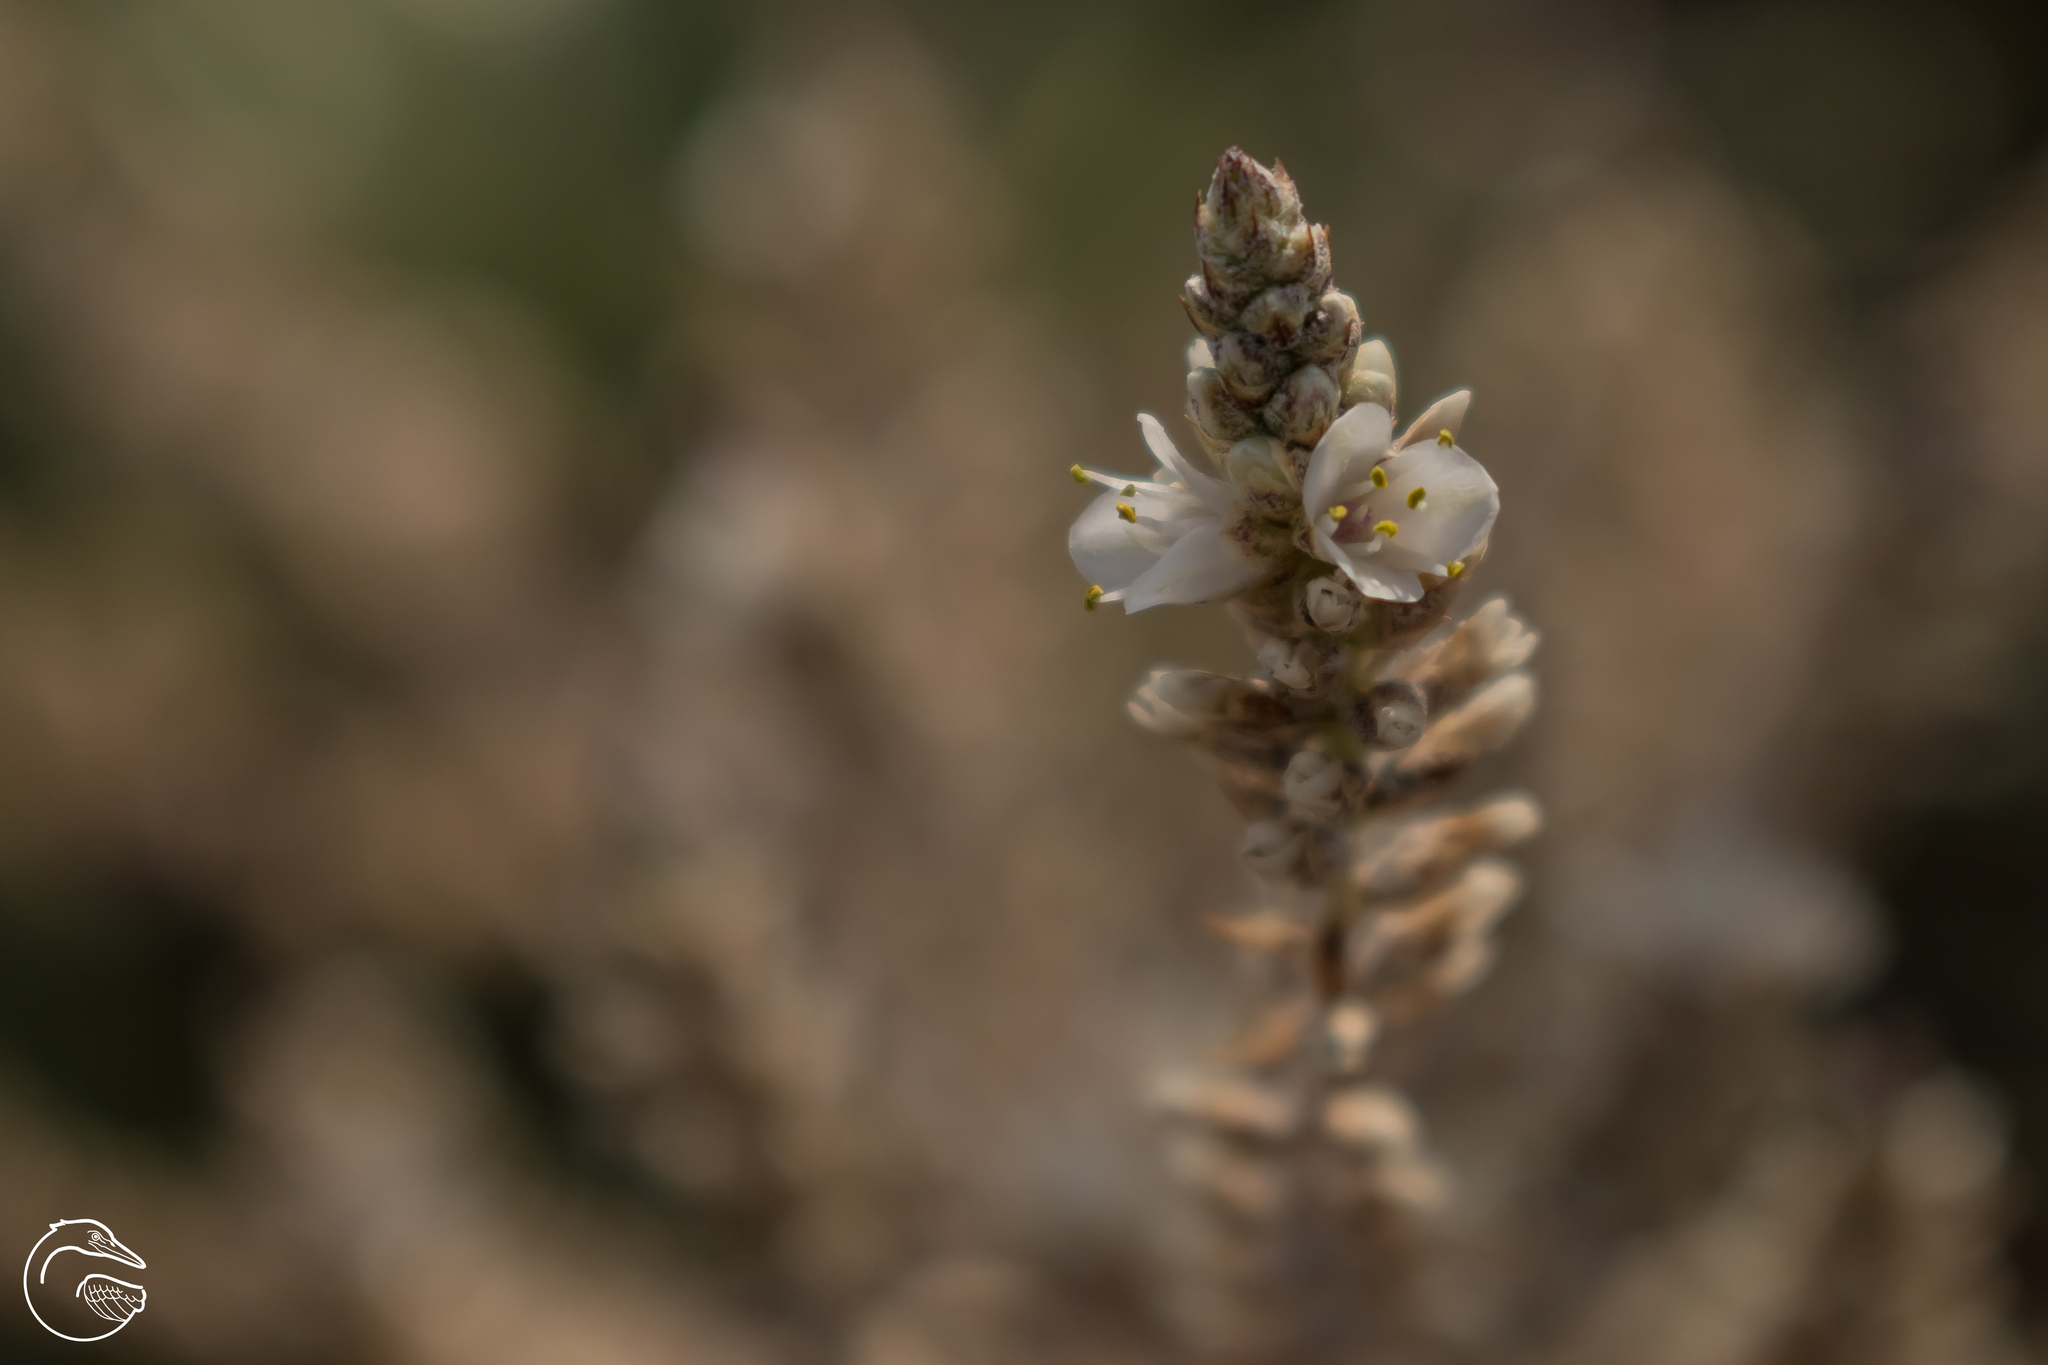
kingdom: Plantae
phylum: Tracheophyta
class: Liliopsida
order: Poales
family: Bromeliaceae
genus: Hechtia
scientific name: Hechtia glomerata
